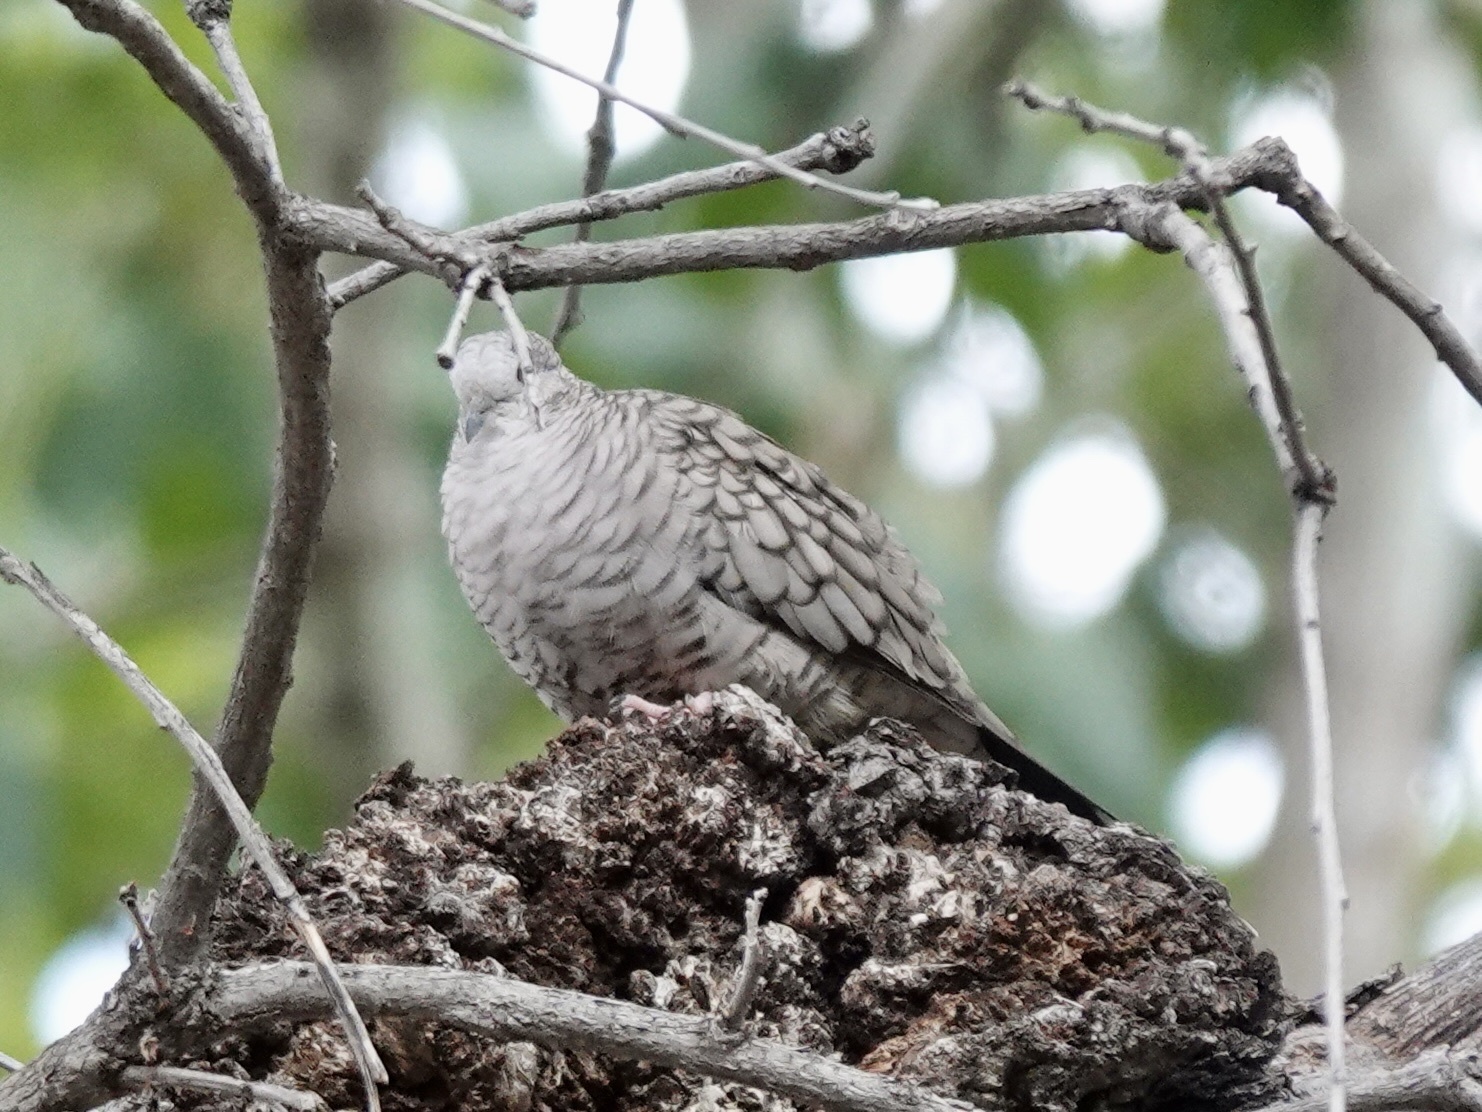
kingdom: Animalia
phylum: Chordata
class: Aves
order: Columbiformes
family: Columbidae
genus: Columbina
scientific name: Columbina inca
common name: Inca dove
